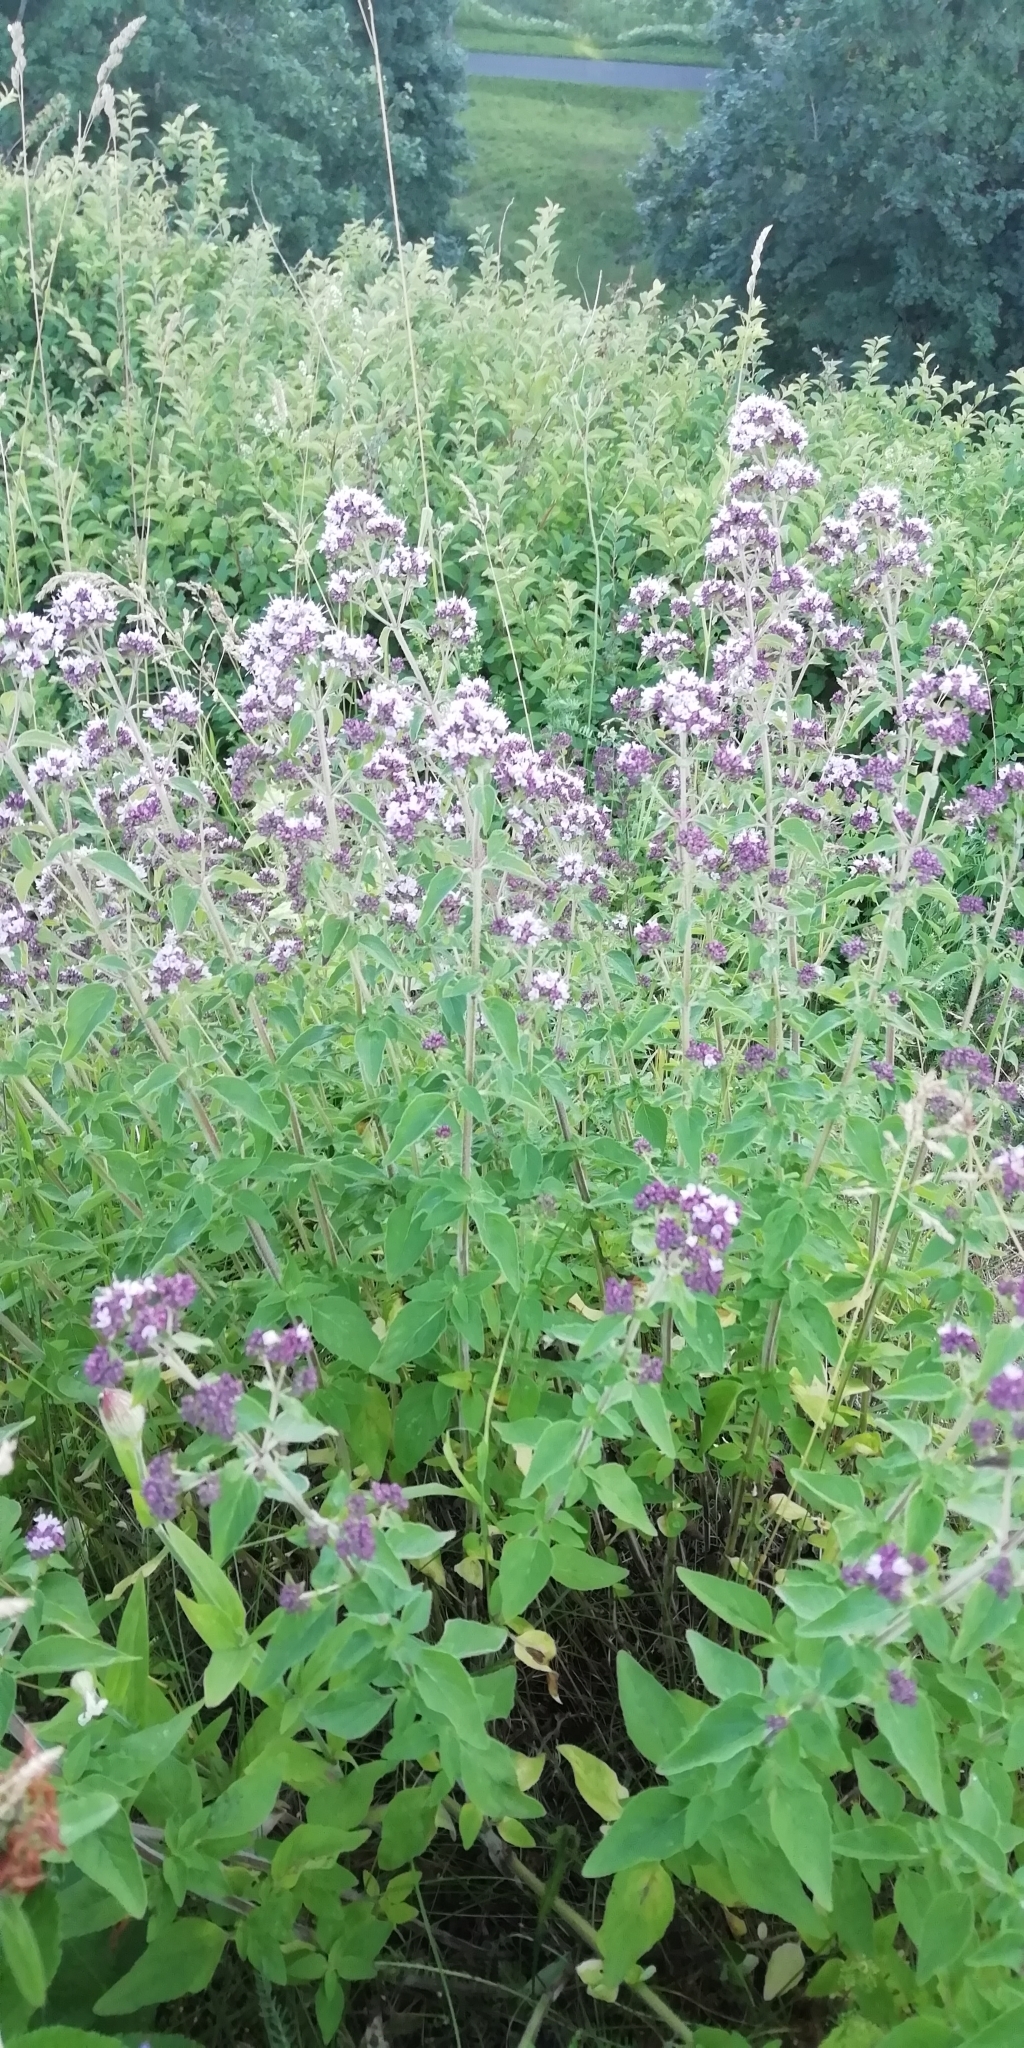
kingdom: Plantae
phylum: Tracheophyta
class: Magnoliopsida
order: Lamiales
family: Lamiaceae
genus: Origanum
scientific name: Origanum vulgare
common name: Wild marjoram
